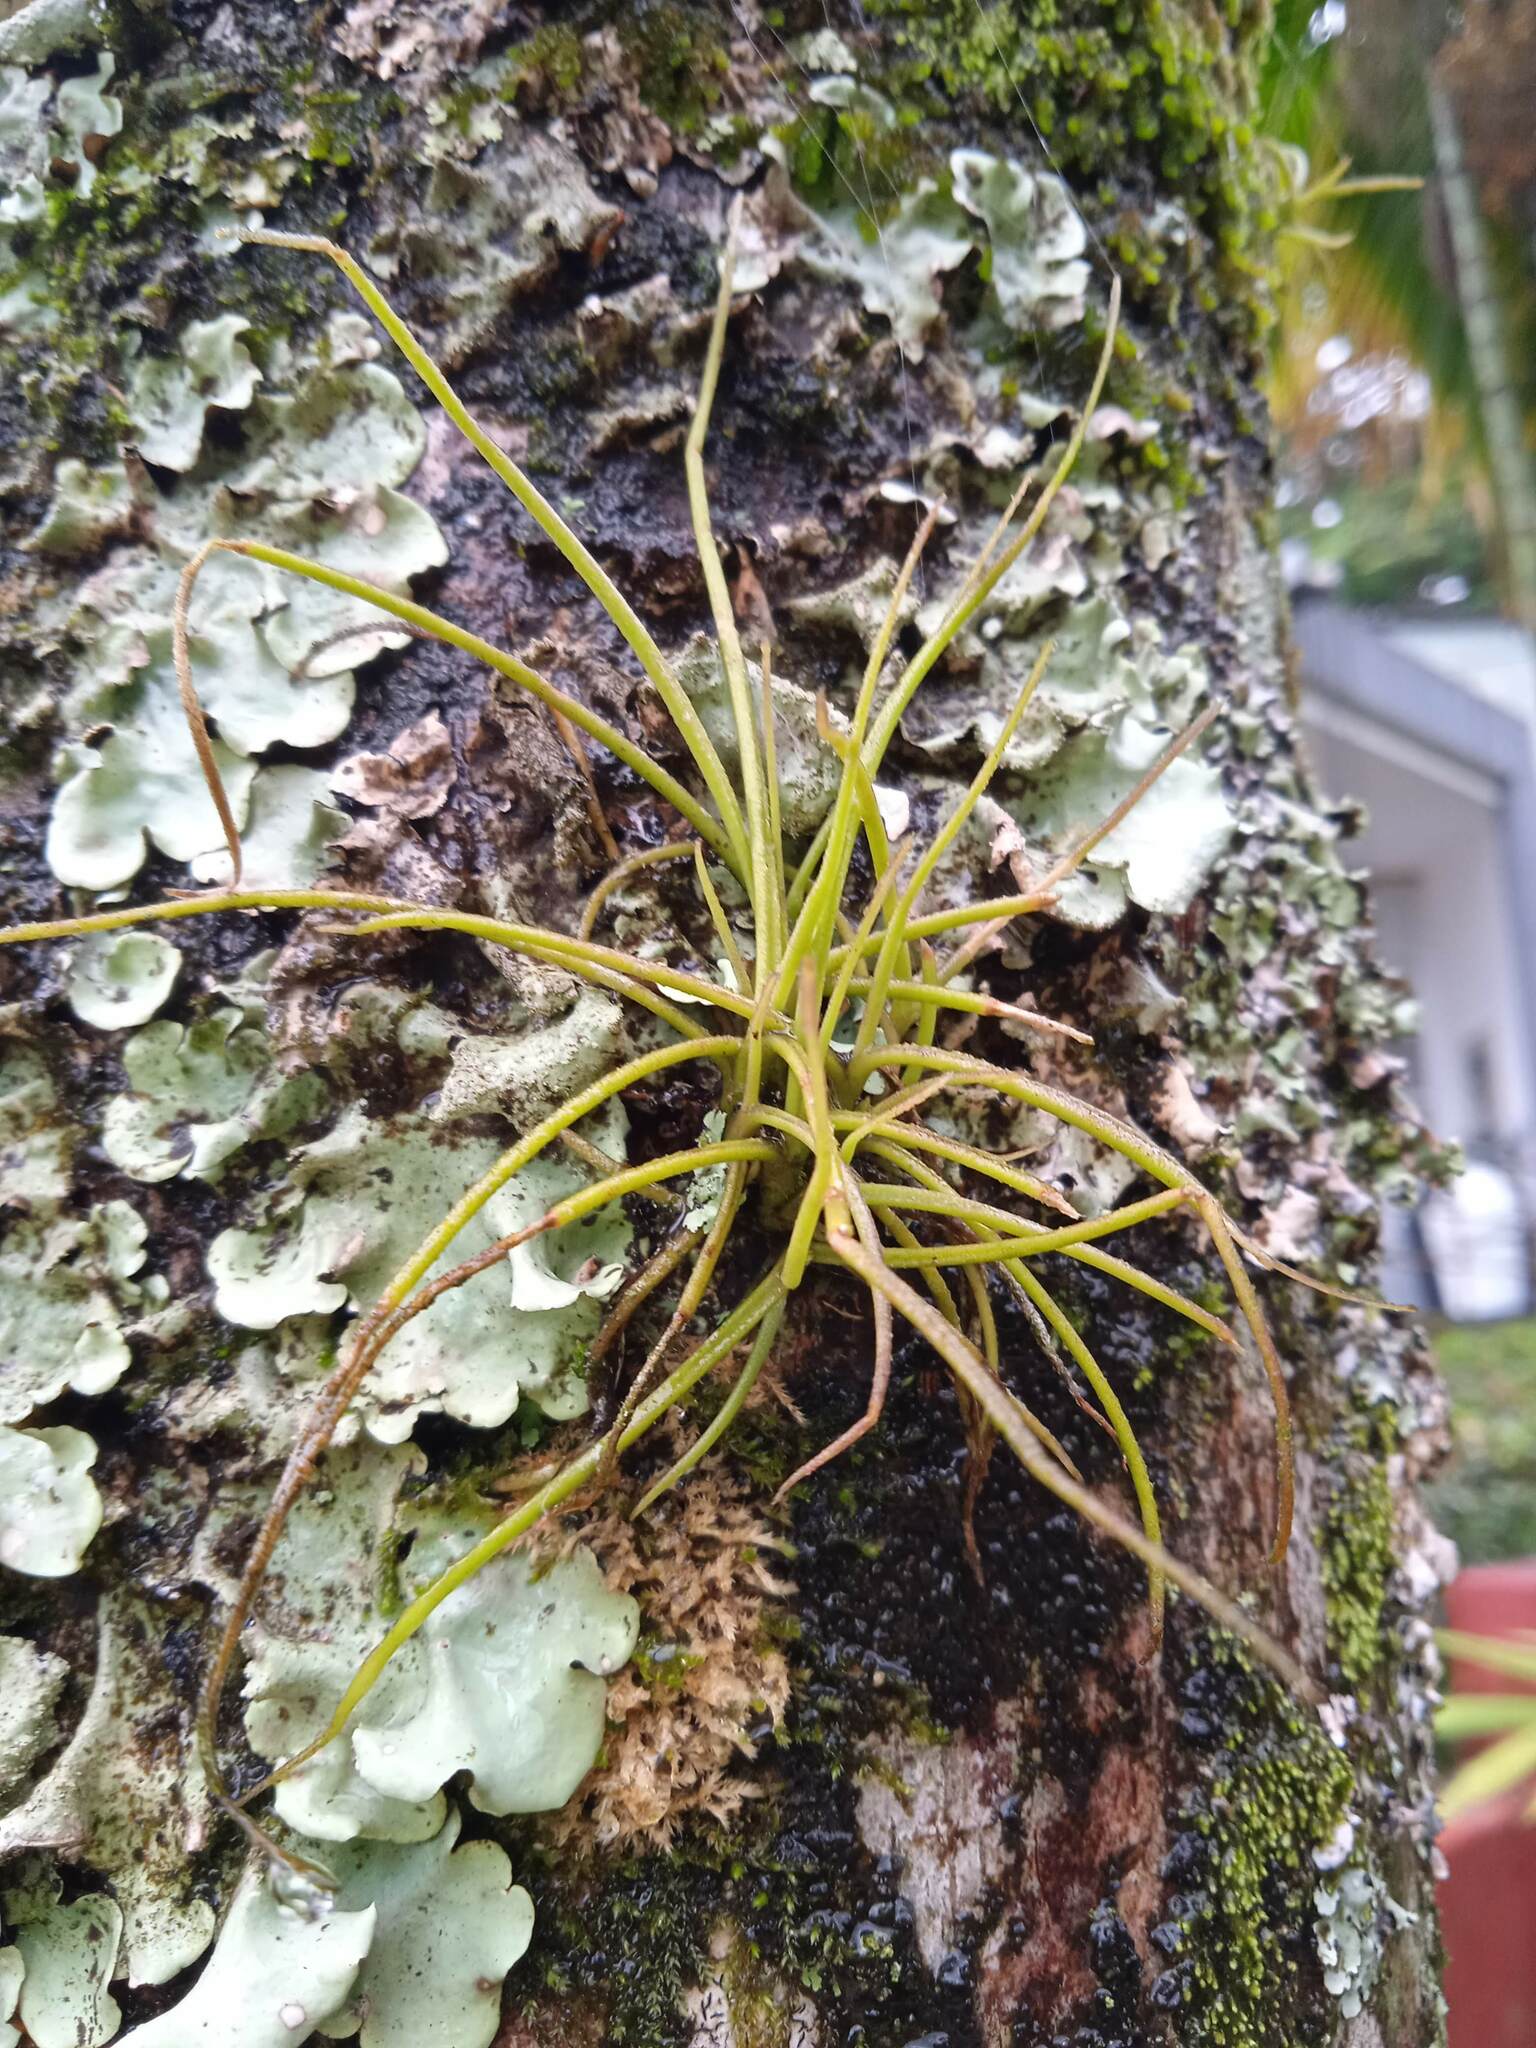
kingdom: Plantae
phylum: Tracheophyta
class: Liliopsida
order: Poales
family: Bromeliaceae
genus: Tillandsia
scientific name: Tillandsia recurvata
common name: Small ballmoss
